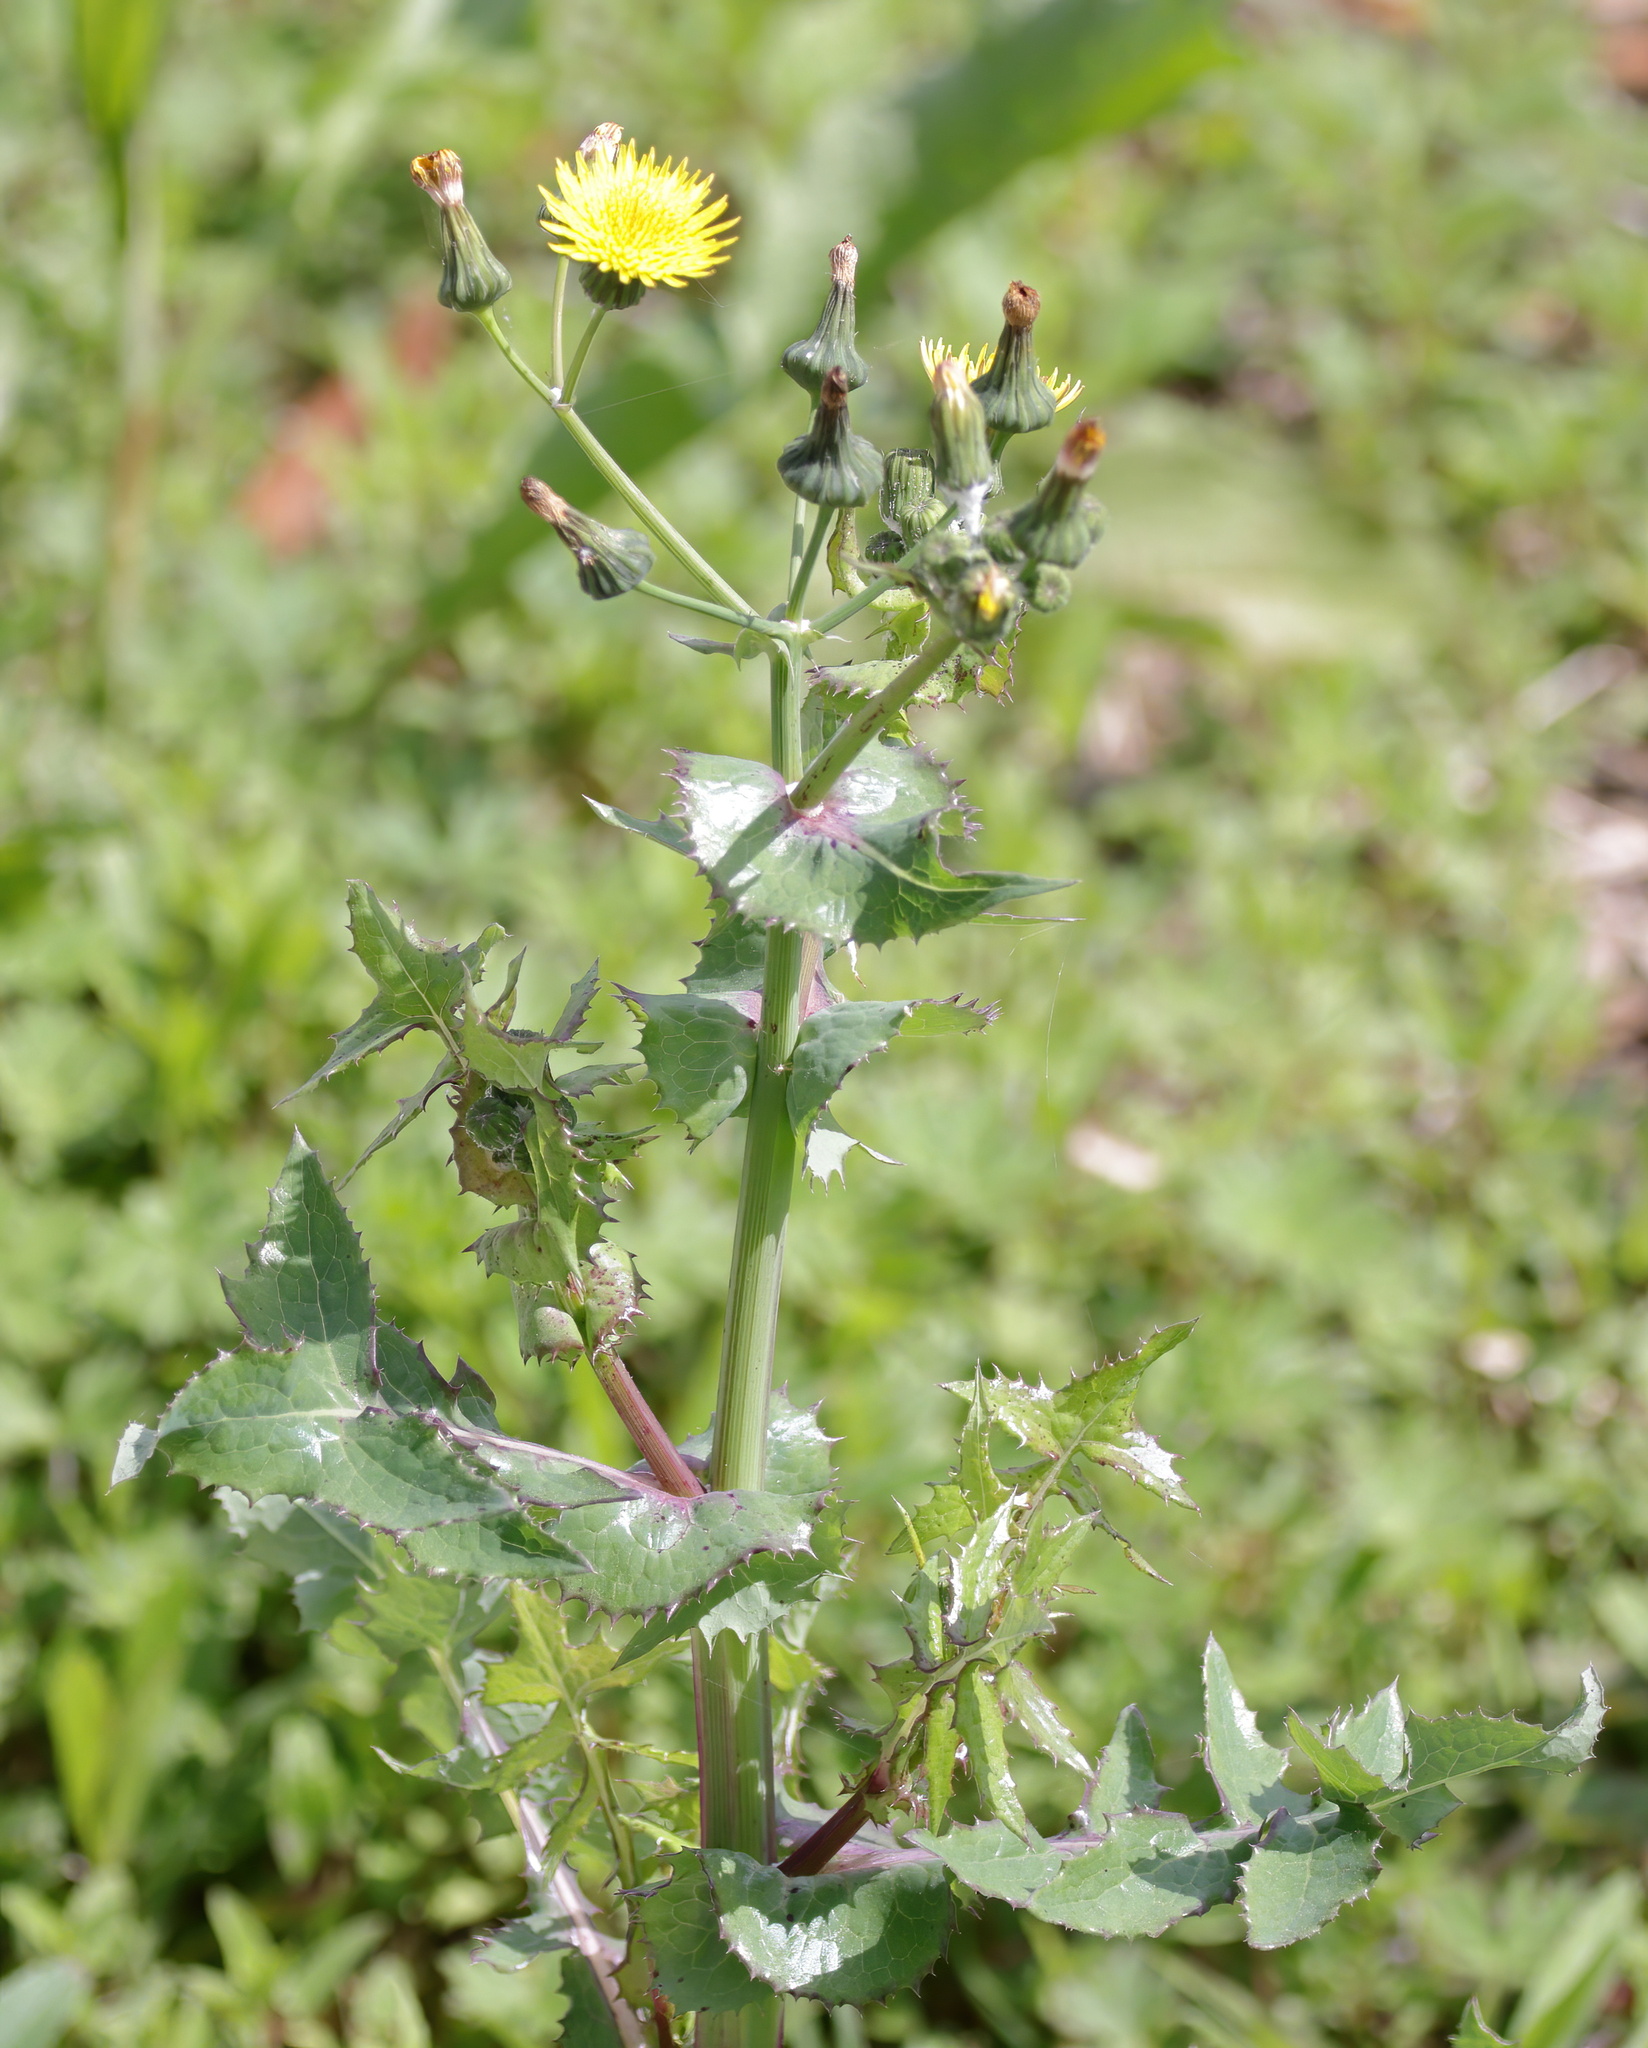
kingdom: Plantae
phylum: Tracheophyta
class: Magnoliopsida
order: Asterales
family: Asteraceae
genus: Sonchus
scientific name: Sonchus oleraceus
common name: Common sowthistle
